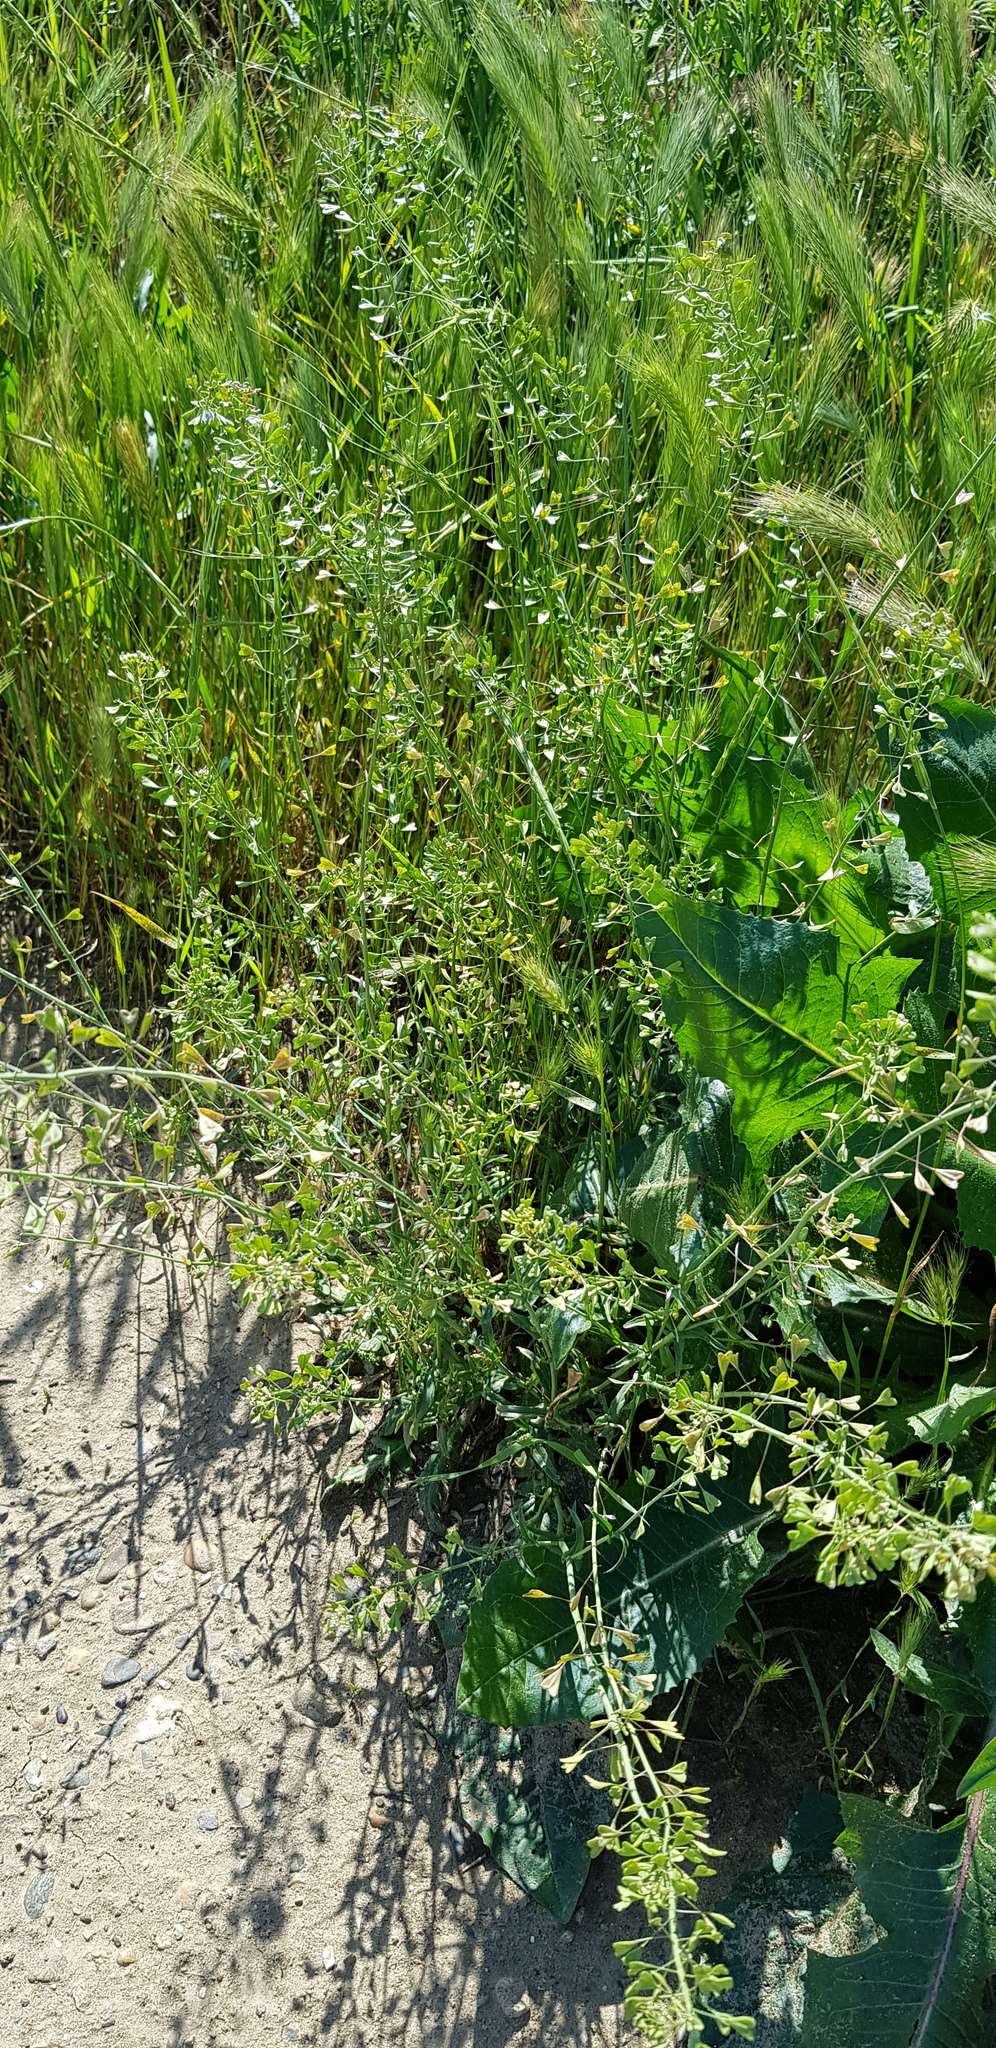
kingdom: Plantae
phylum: Tracheophyta
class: Magnoliopsida
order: Brassicales
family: Brassicaceae
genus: Capsella
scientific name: Capsella bursa-pastoris
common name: Shepherd's purse
